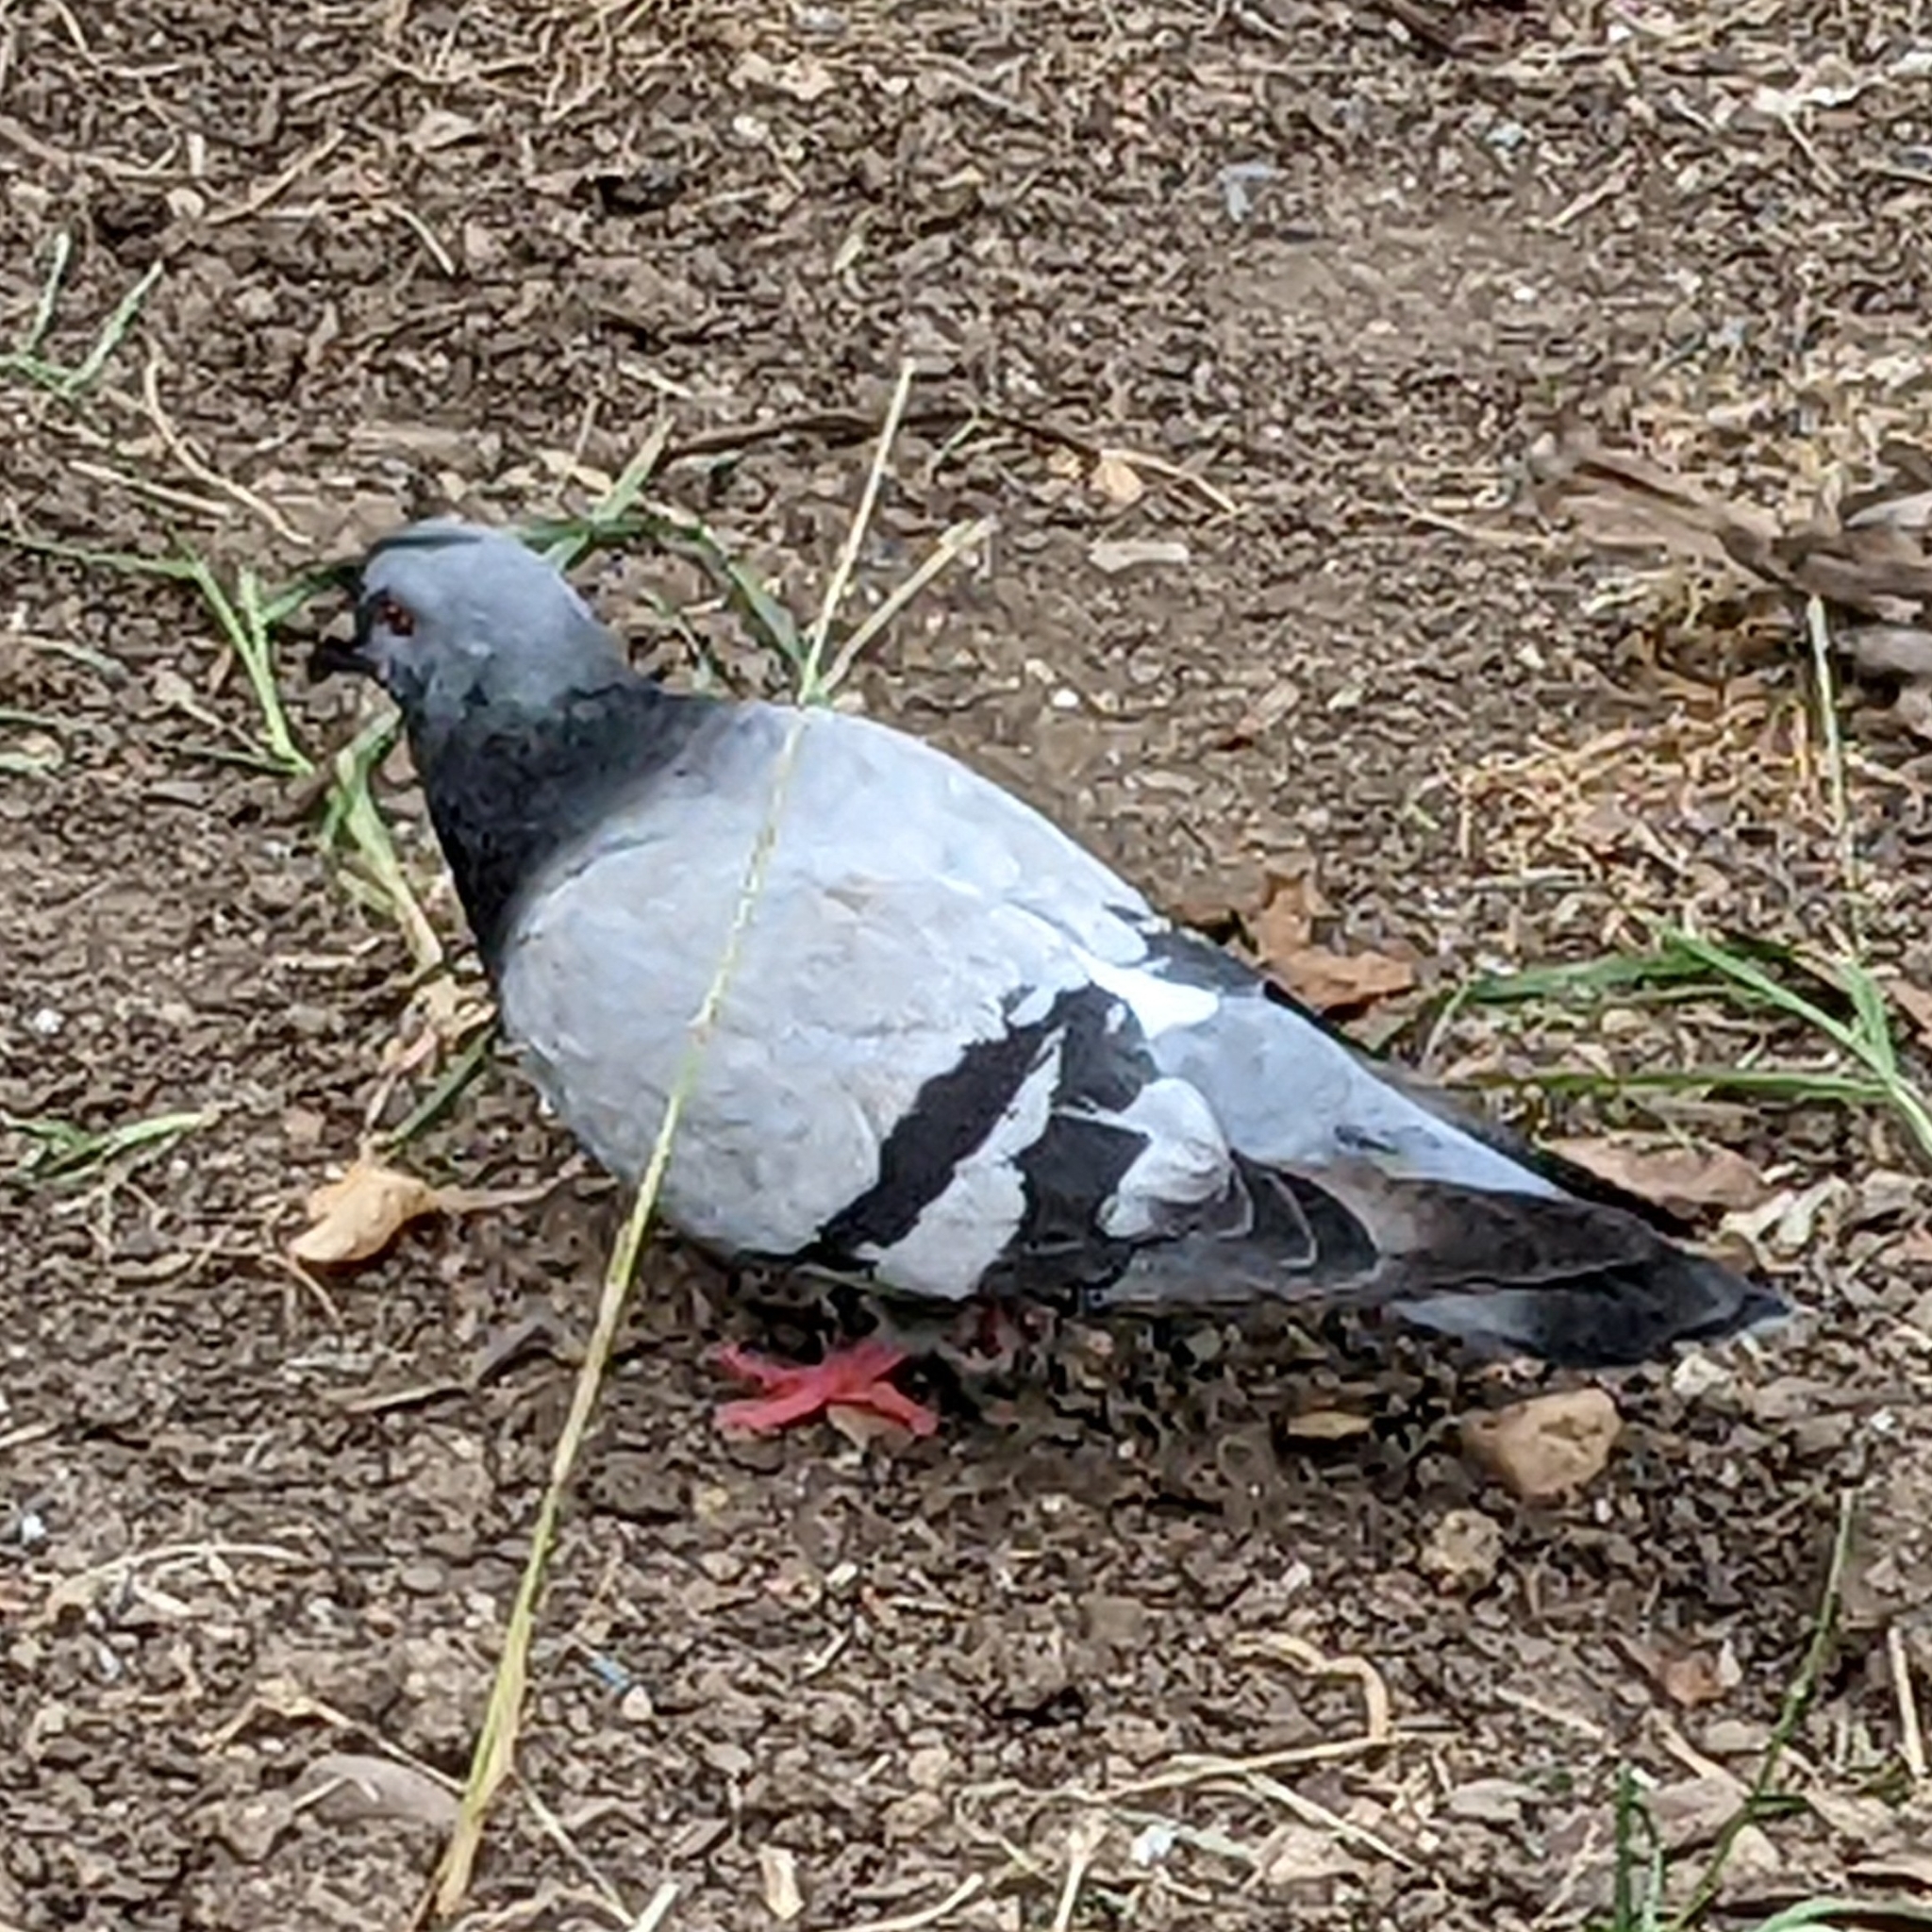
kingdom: Animalia
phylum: Chordata
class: Aves
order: Columbiformes
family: Columbidae
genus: Columba
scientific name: Columba livia
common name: Rock pigeon
